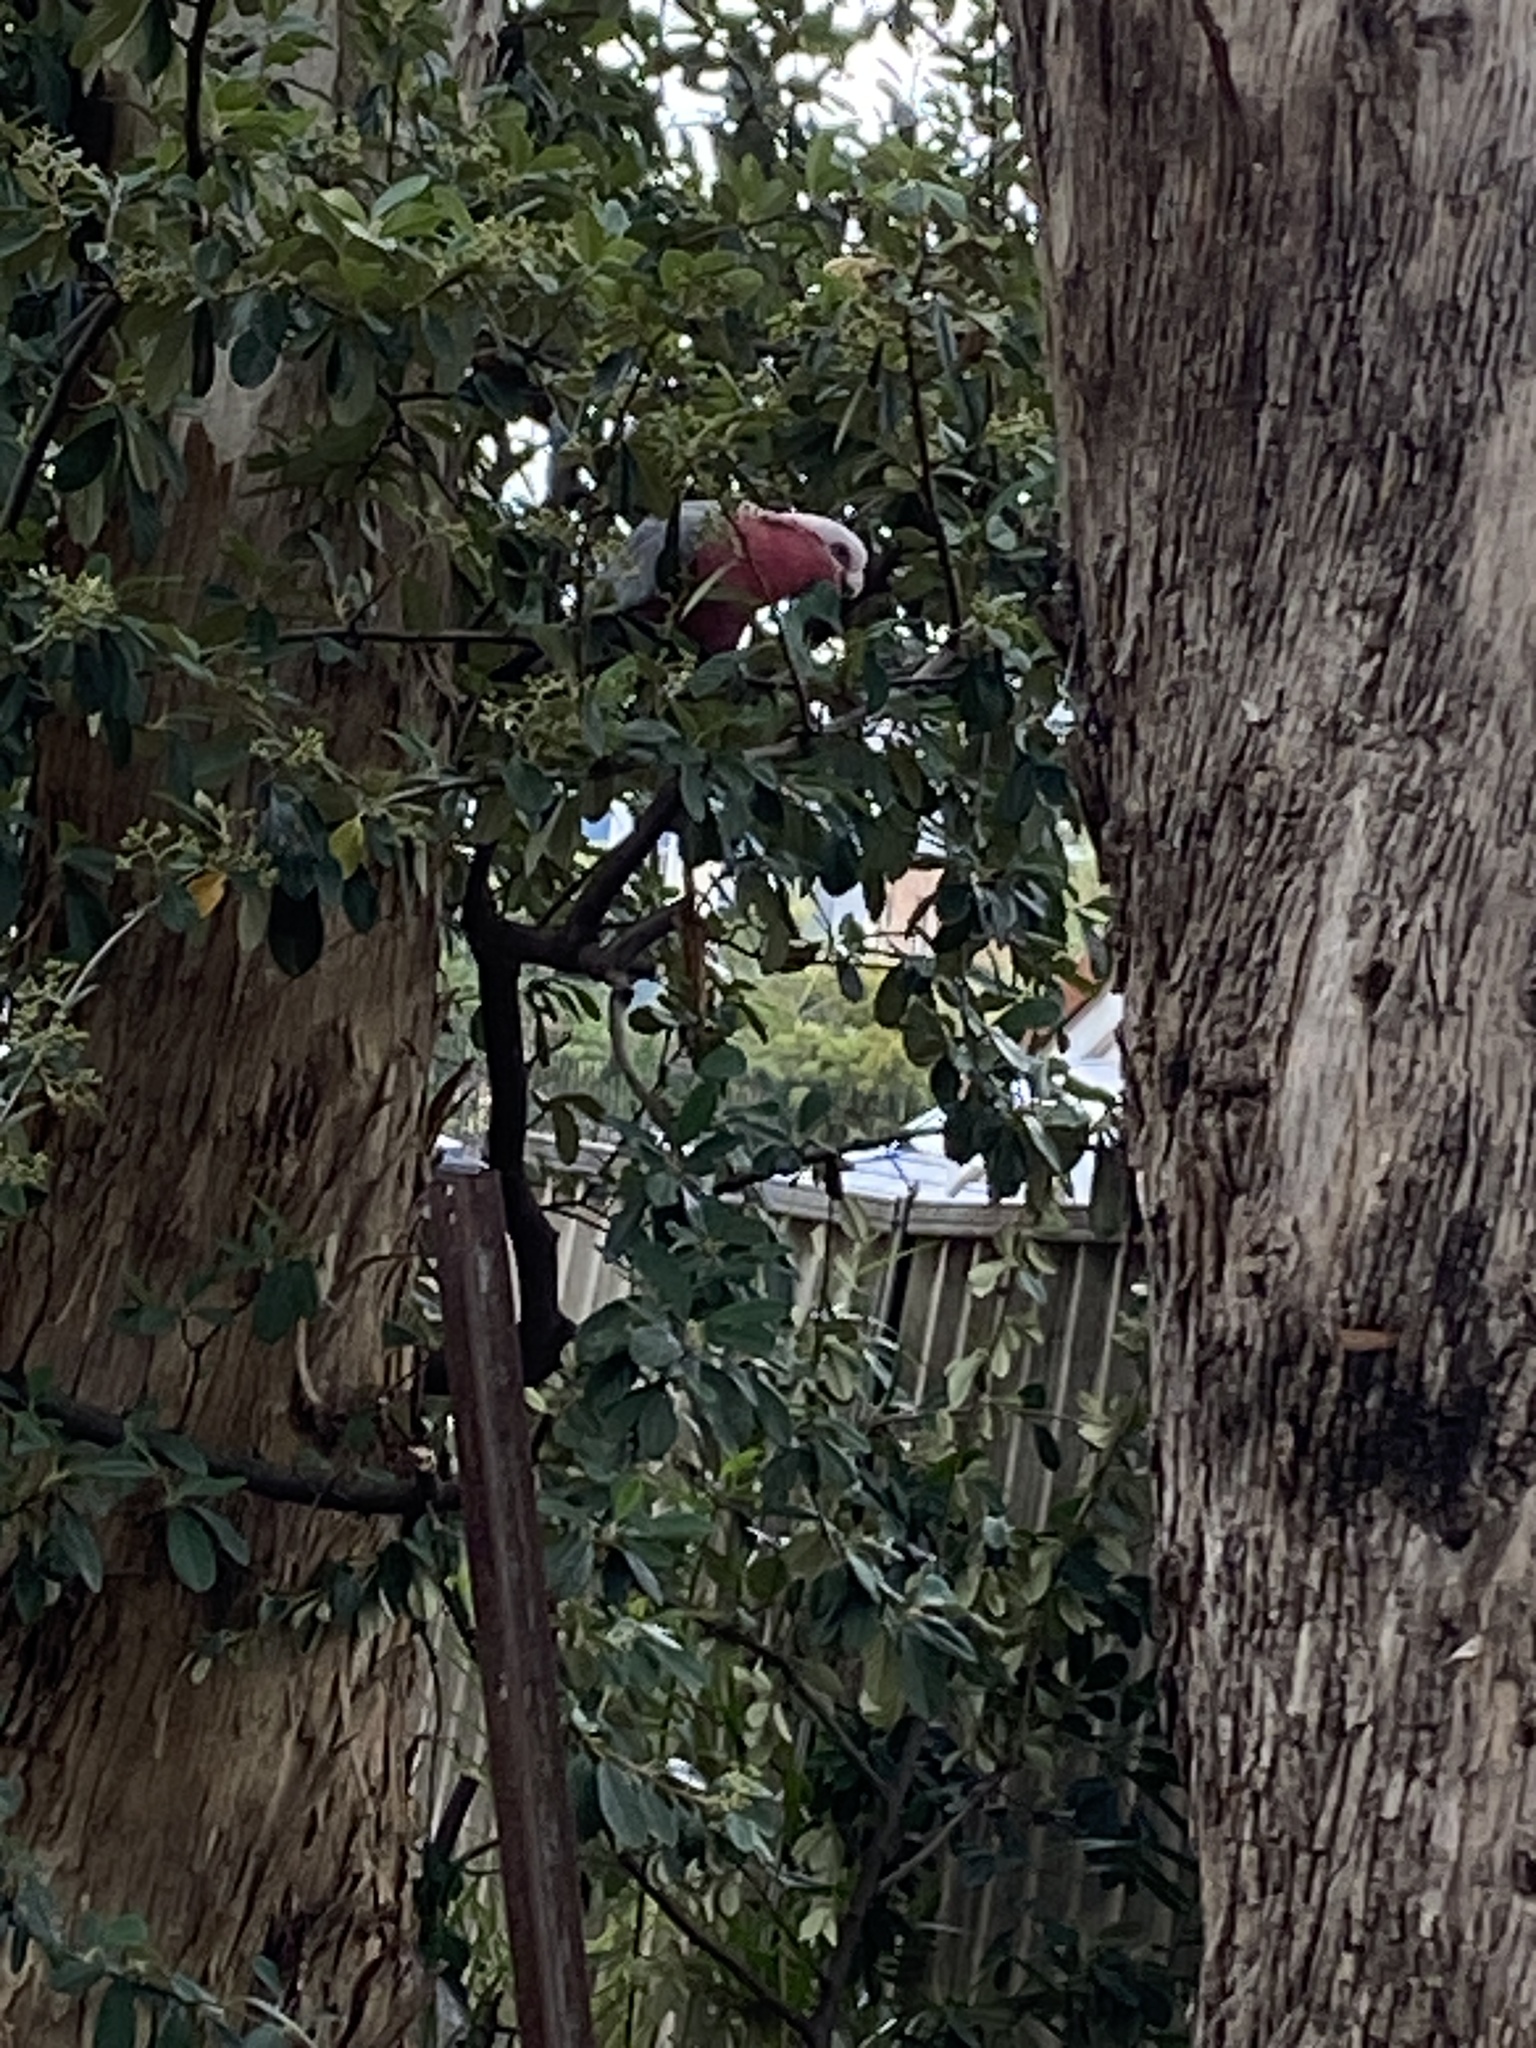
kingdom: Animalia
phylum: Chordata
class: Aves
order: Psittaciformes
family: Psittacidae
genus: Eolophus
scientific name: Eolophus roseicapilla
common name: Galah
